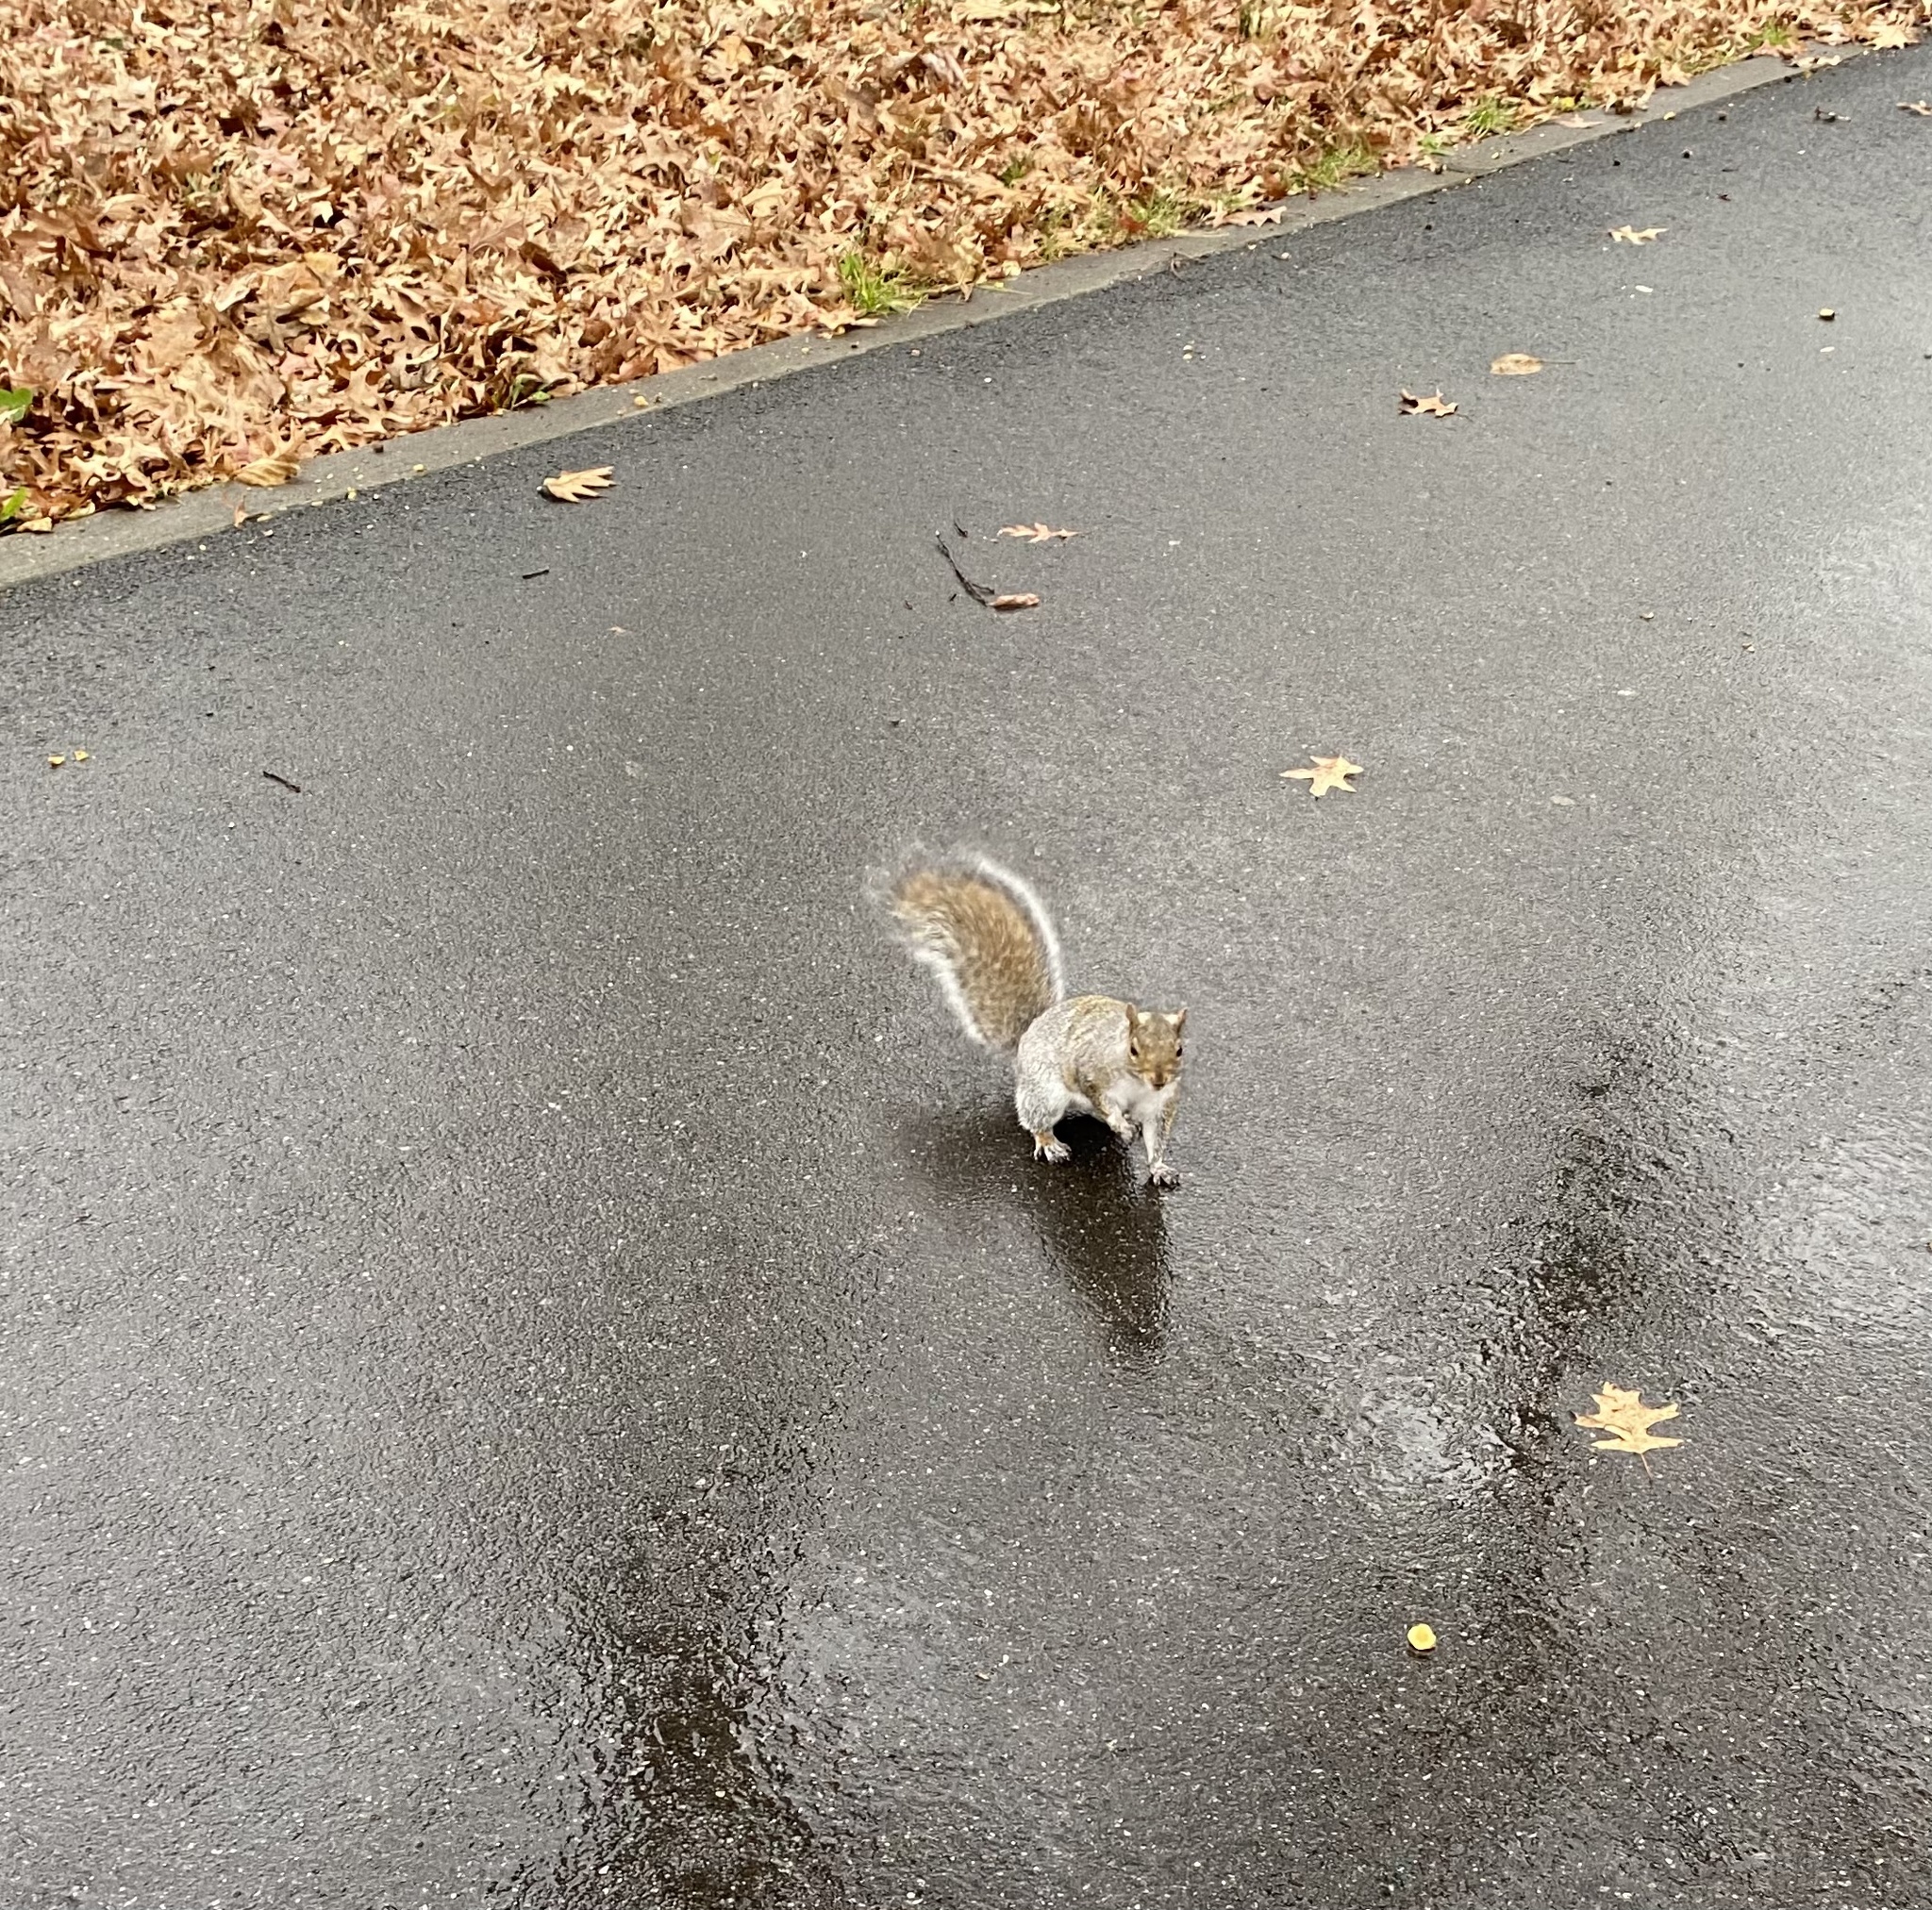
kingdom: Animalia
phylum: Chordata
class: Mammalia
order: Rodentia
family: Sciuridae
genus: Sciurus
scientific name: Sciurus carolinensis
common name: Eastern gray squirrel
